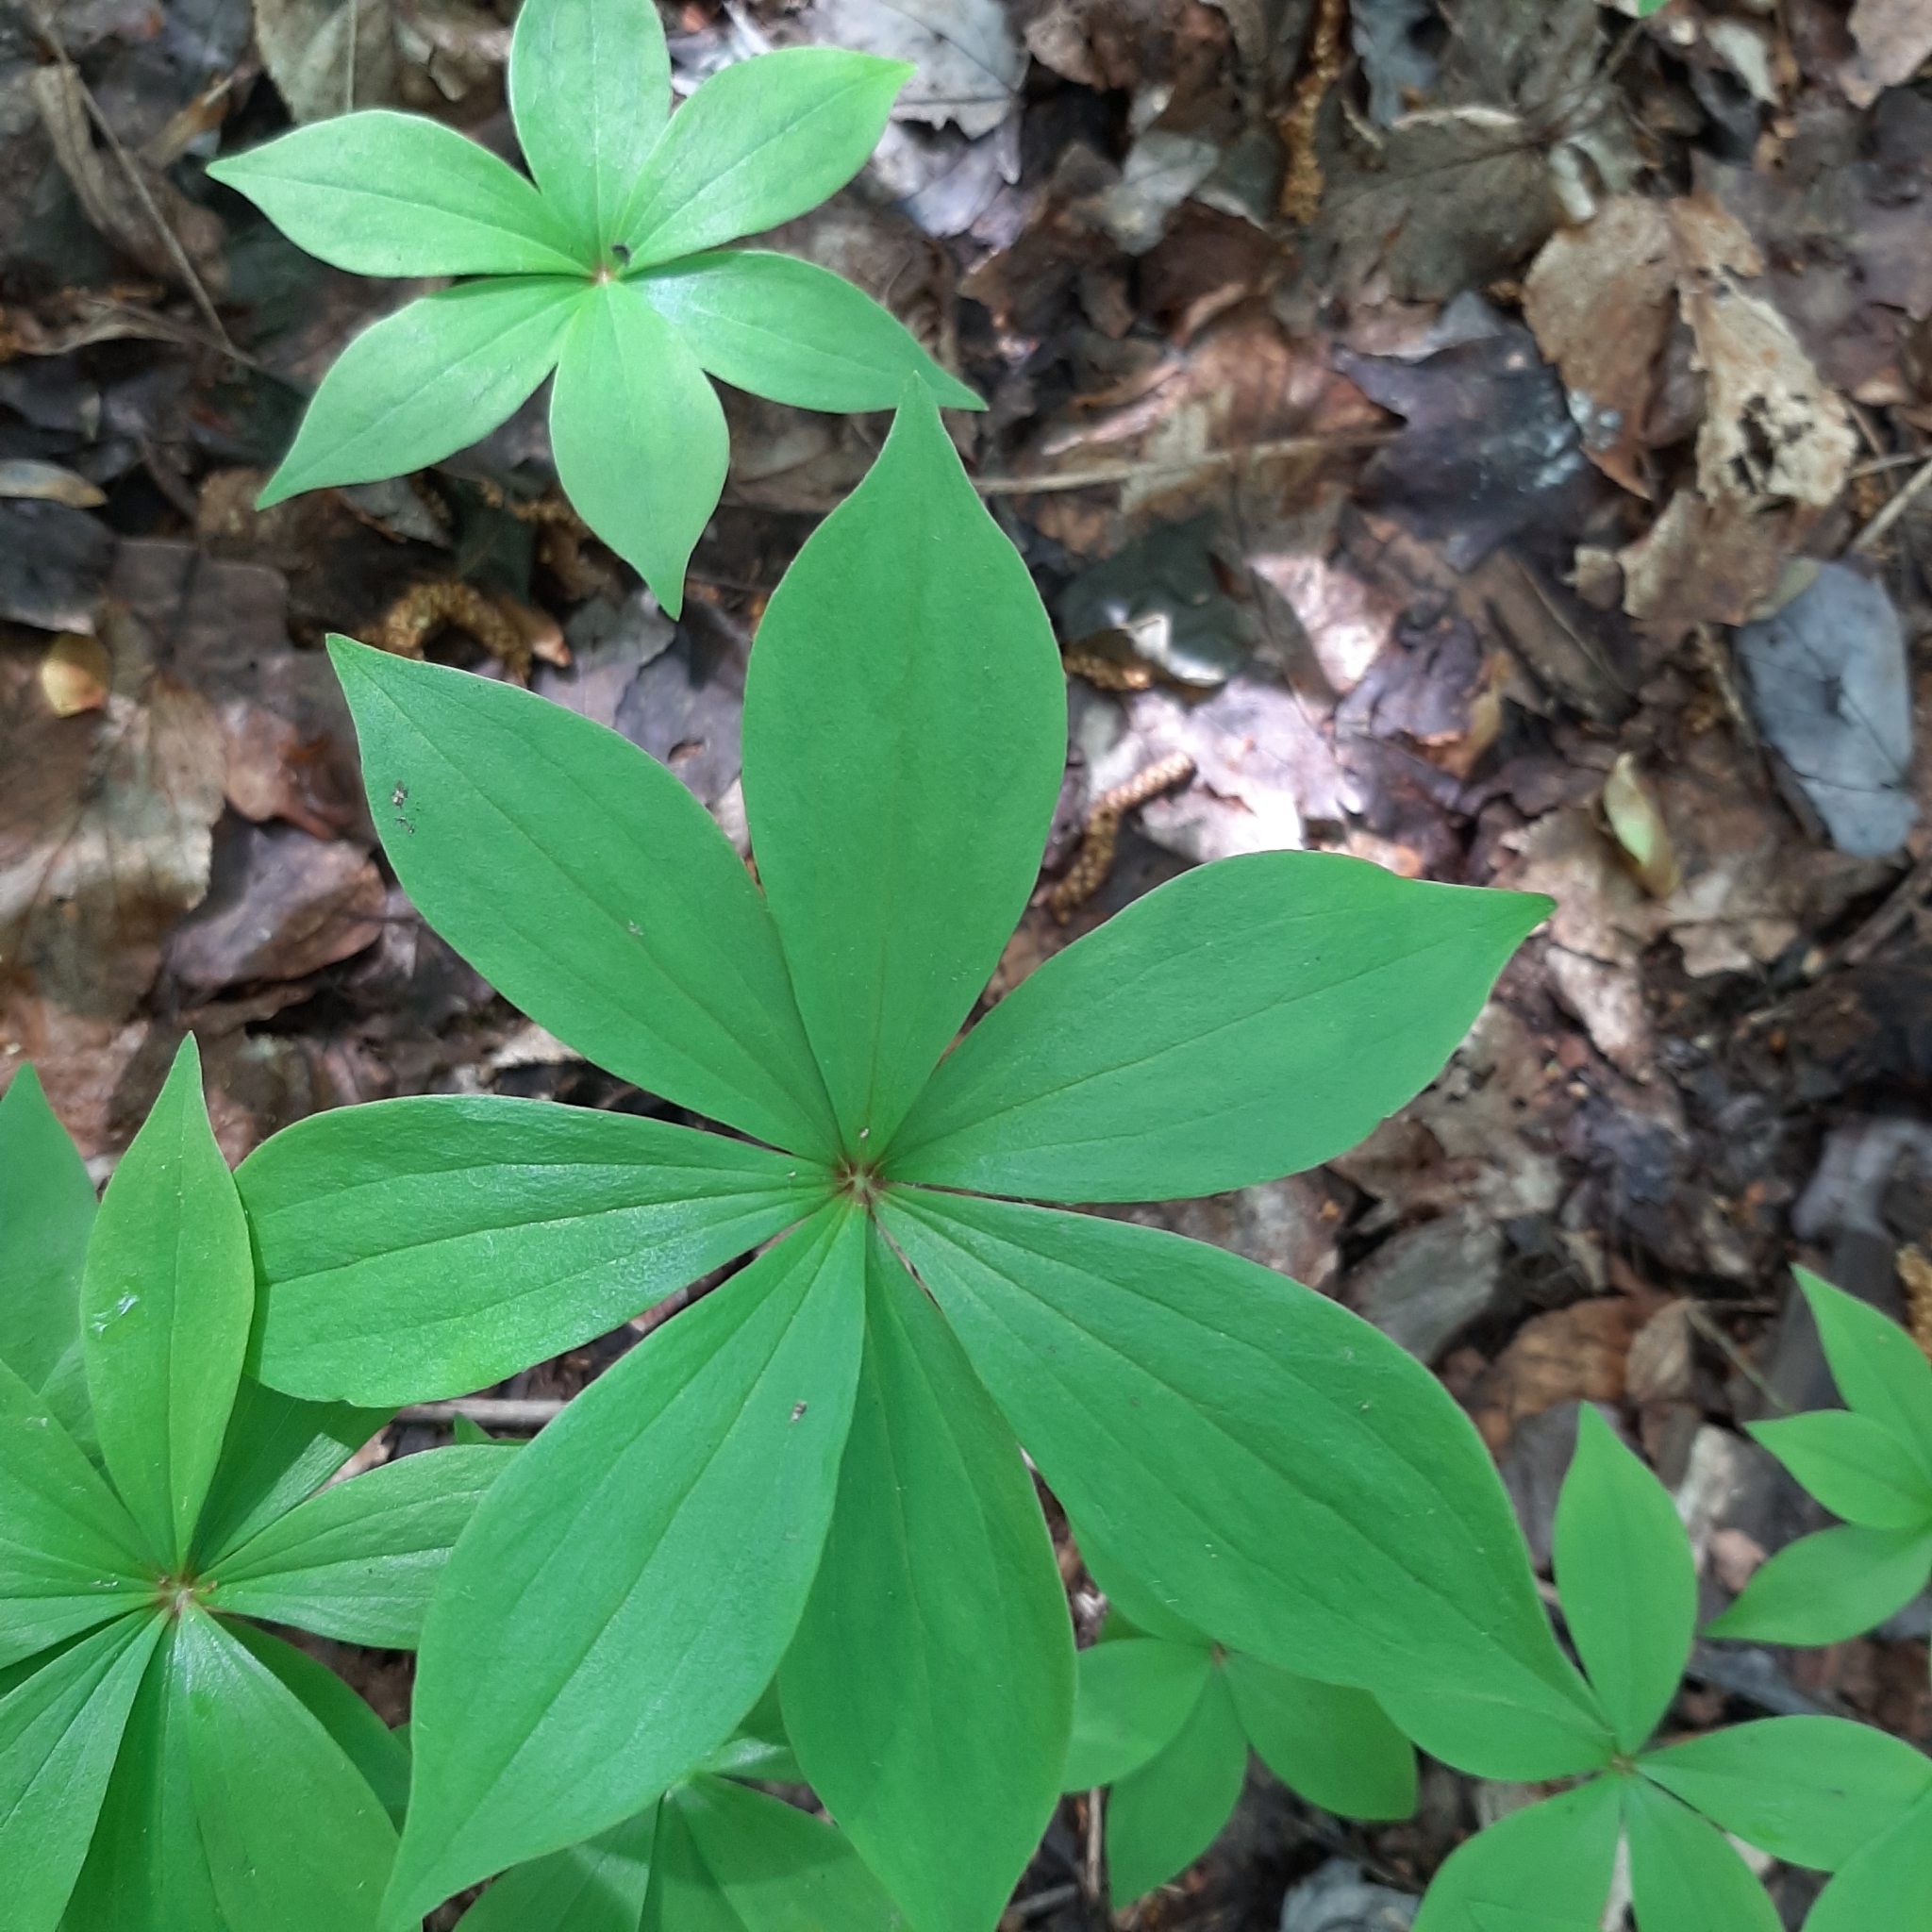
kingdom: Plantae
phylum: Tracheophyta
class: Liliopsida
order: Liliales
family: Liliaceae
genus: Medeola
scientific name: Medeola virginiana
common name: Indian cucumber-root
